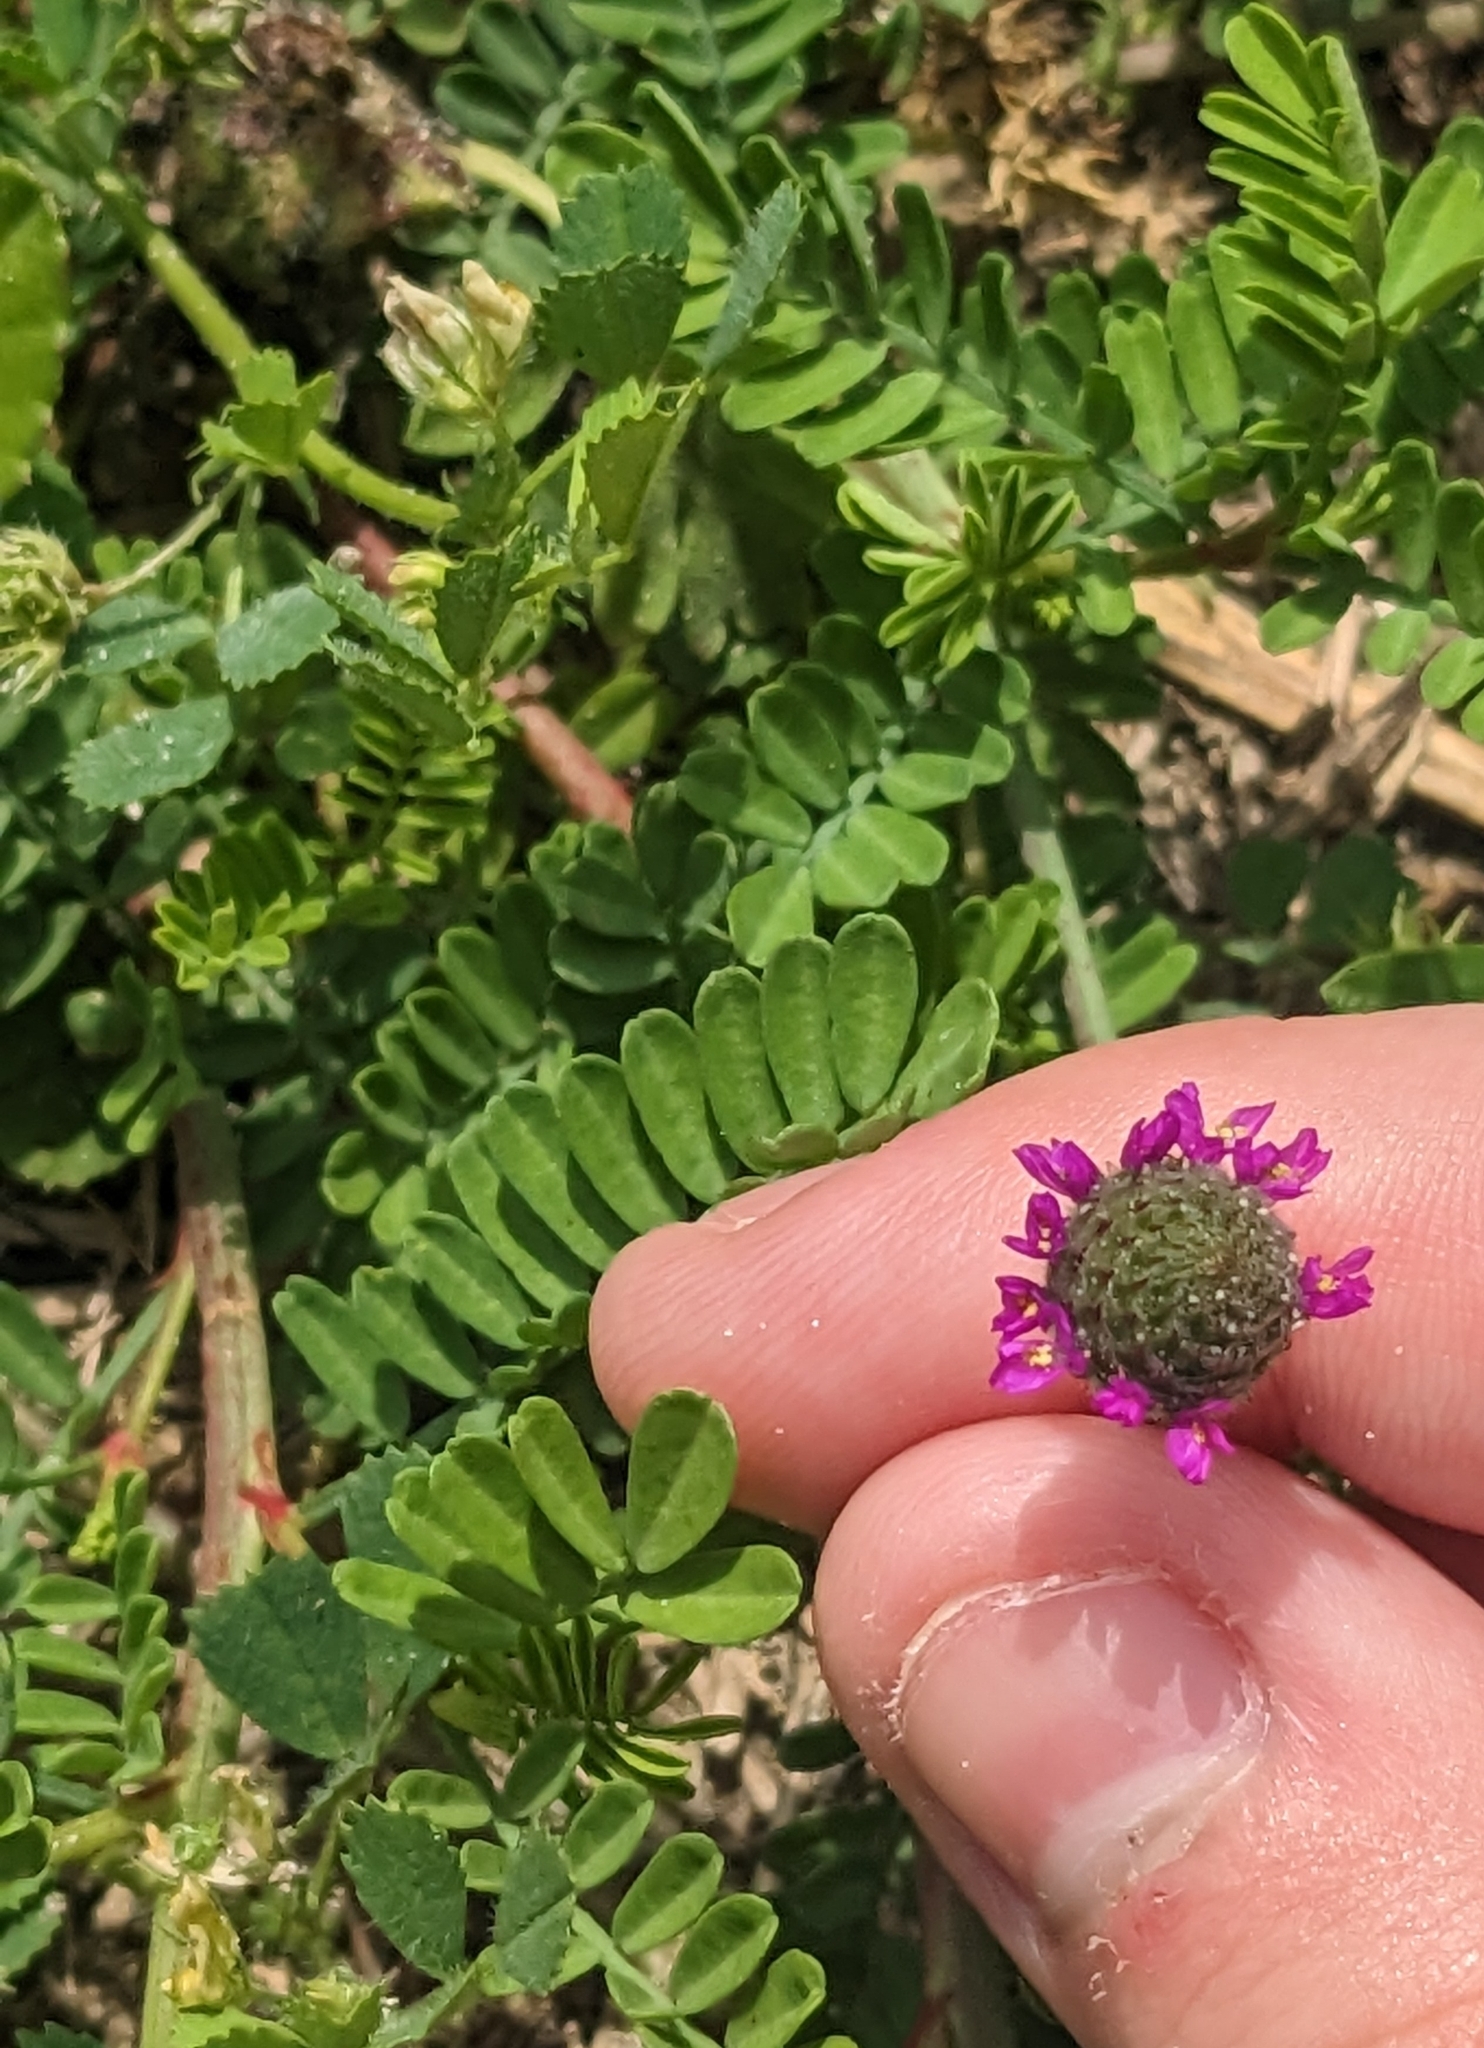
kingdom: Plantae
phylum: Tracheophyta
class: Magnoliopsida
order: Fabales
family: Fabaceae
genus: Dalea
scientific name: Dalea emarginata
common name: Wedgeleaf prairie clover
